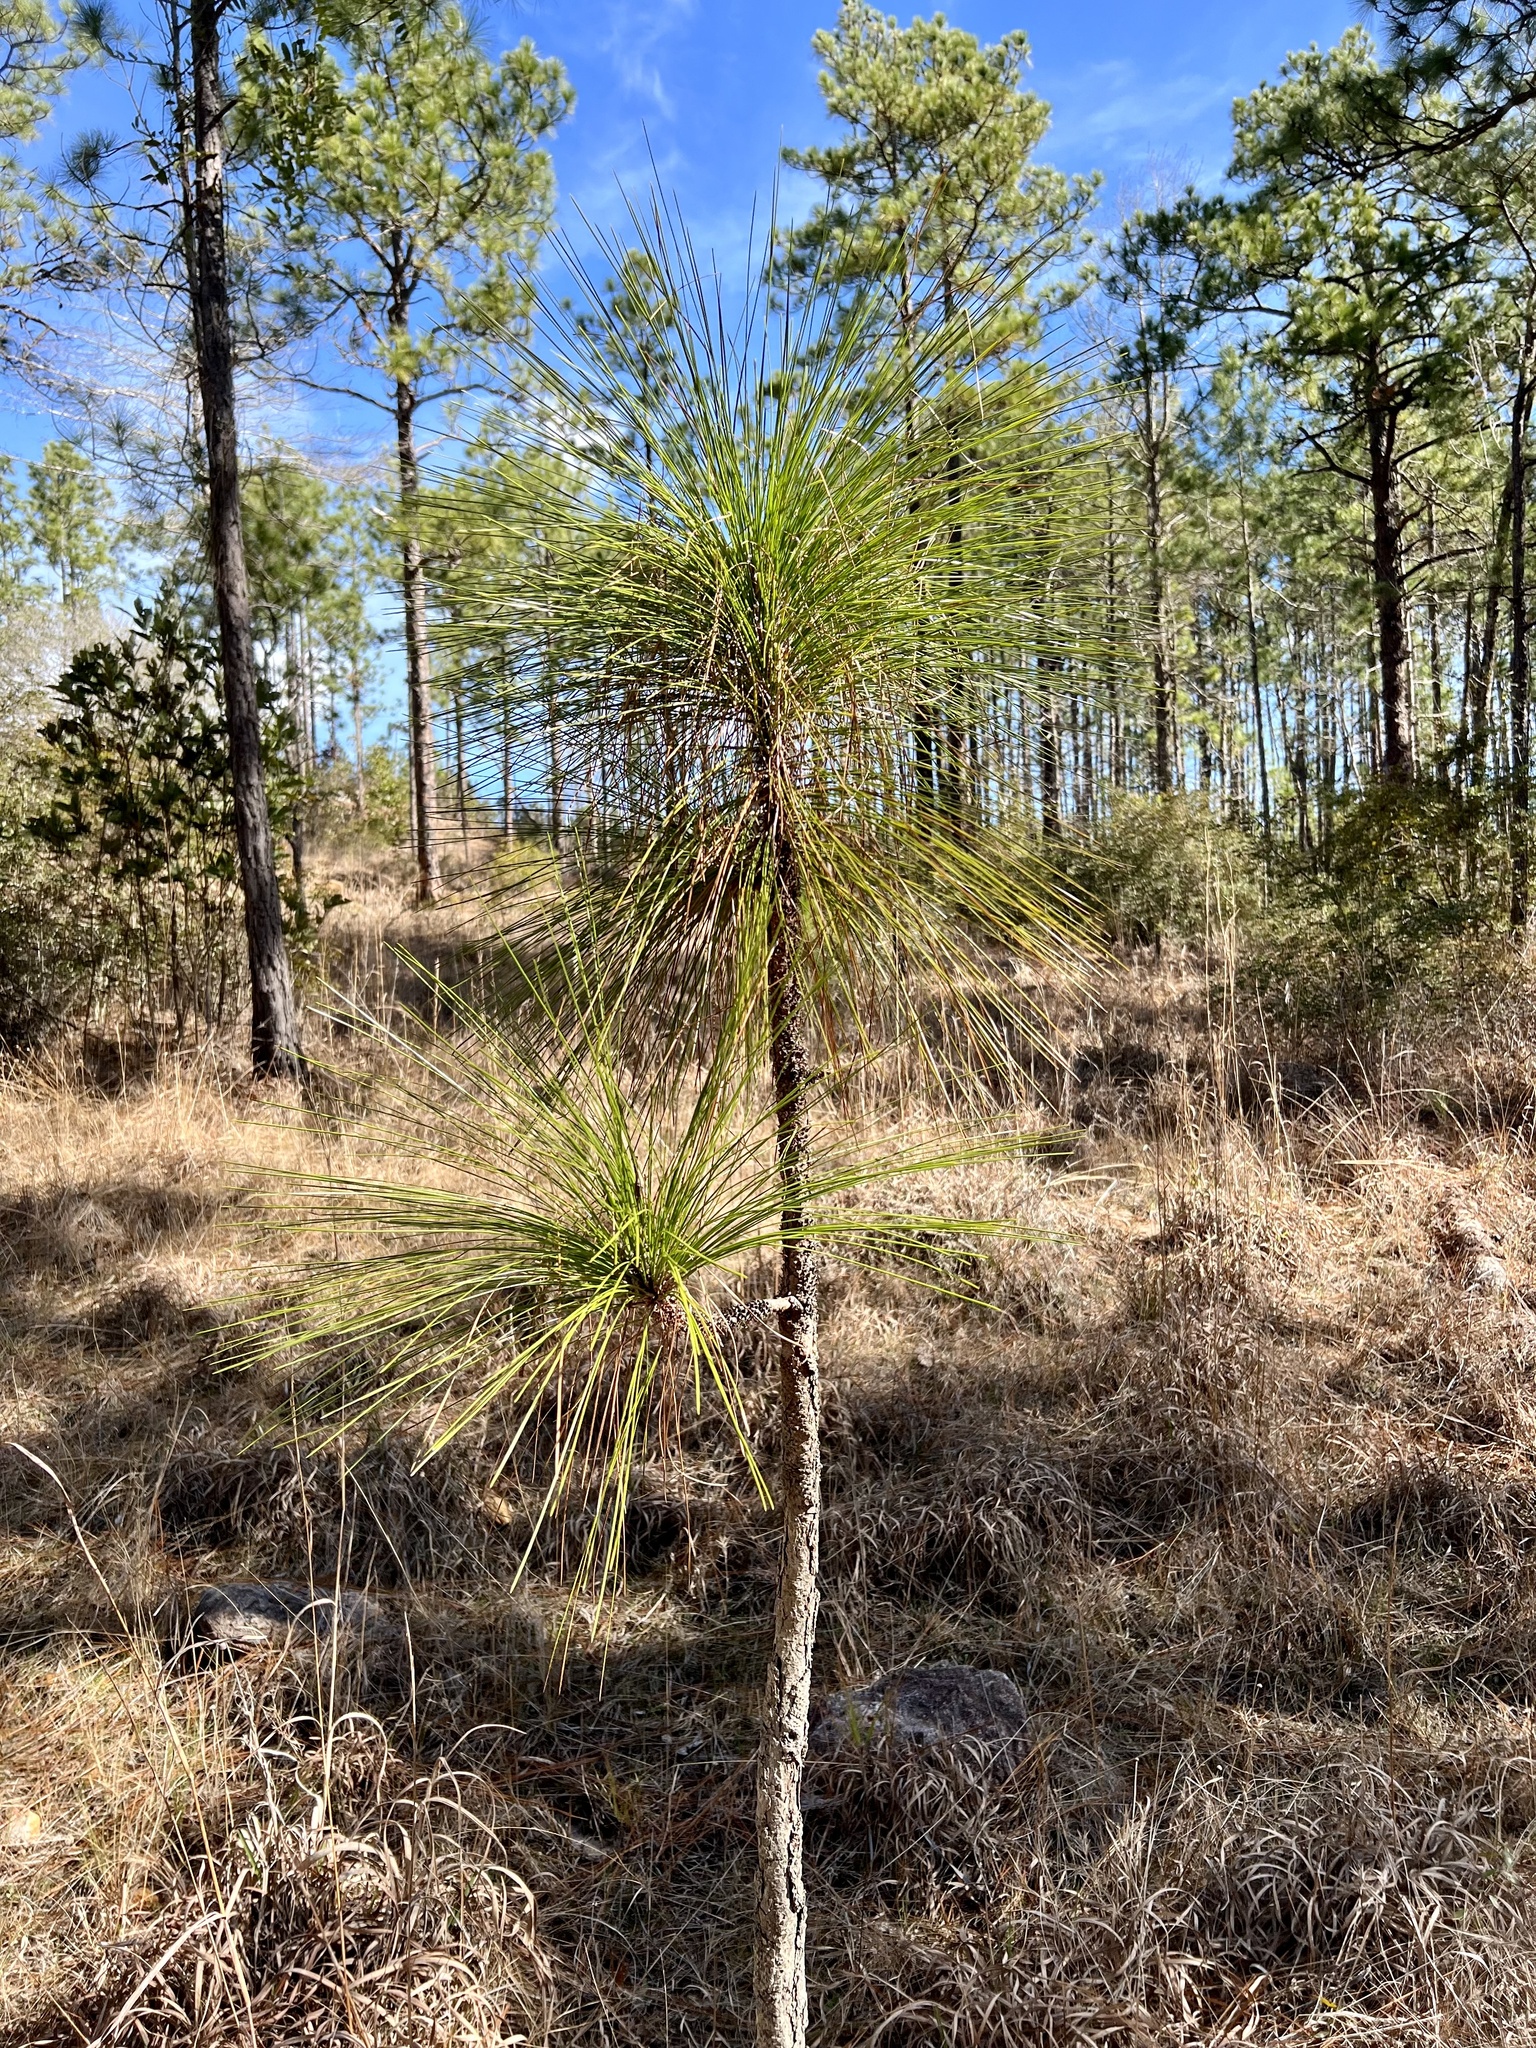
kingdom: Plantae
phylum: Tracheophyta
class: Pinopsida
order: Pinales
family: Pinaceae
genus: Pinus
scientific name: Pinus palustris
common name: Longleaf pine
